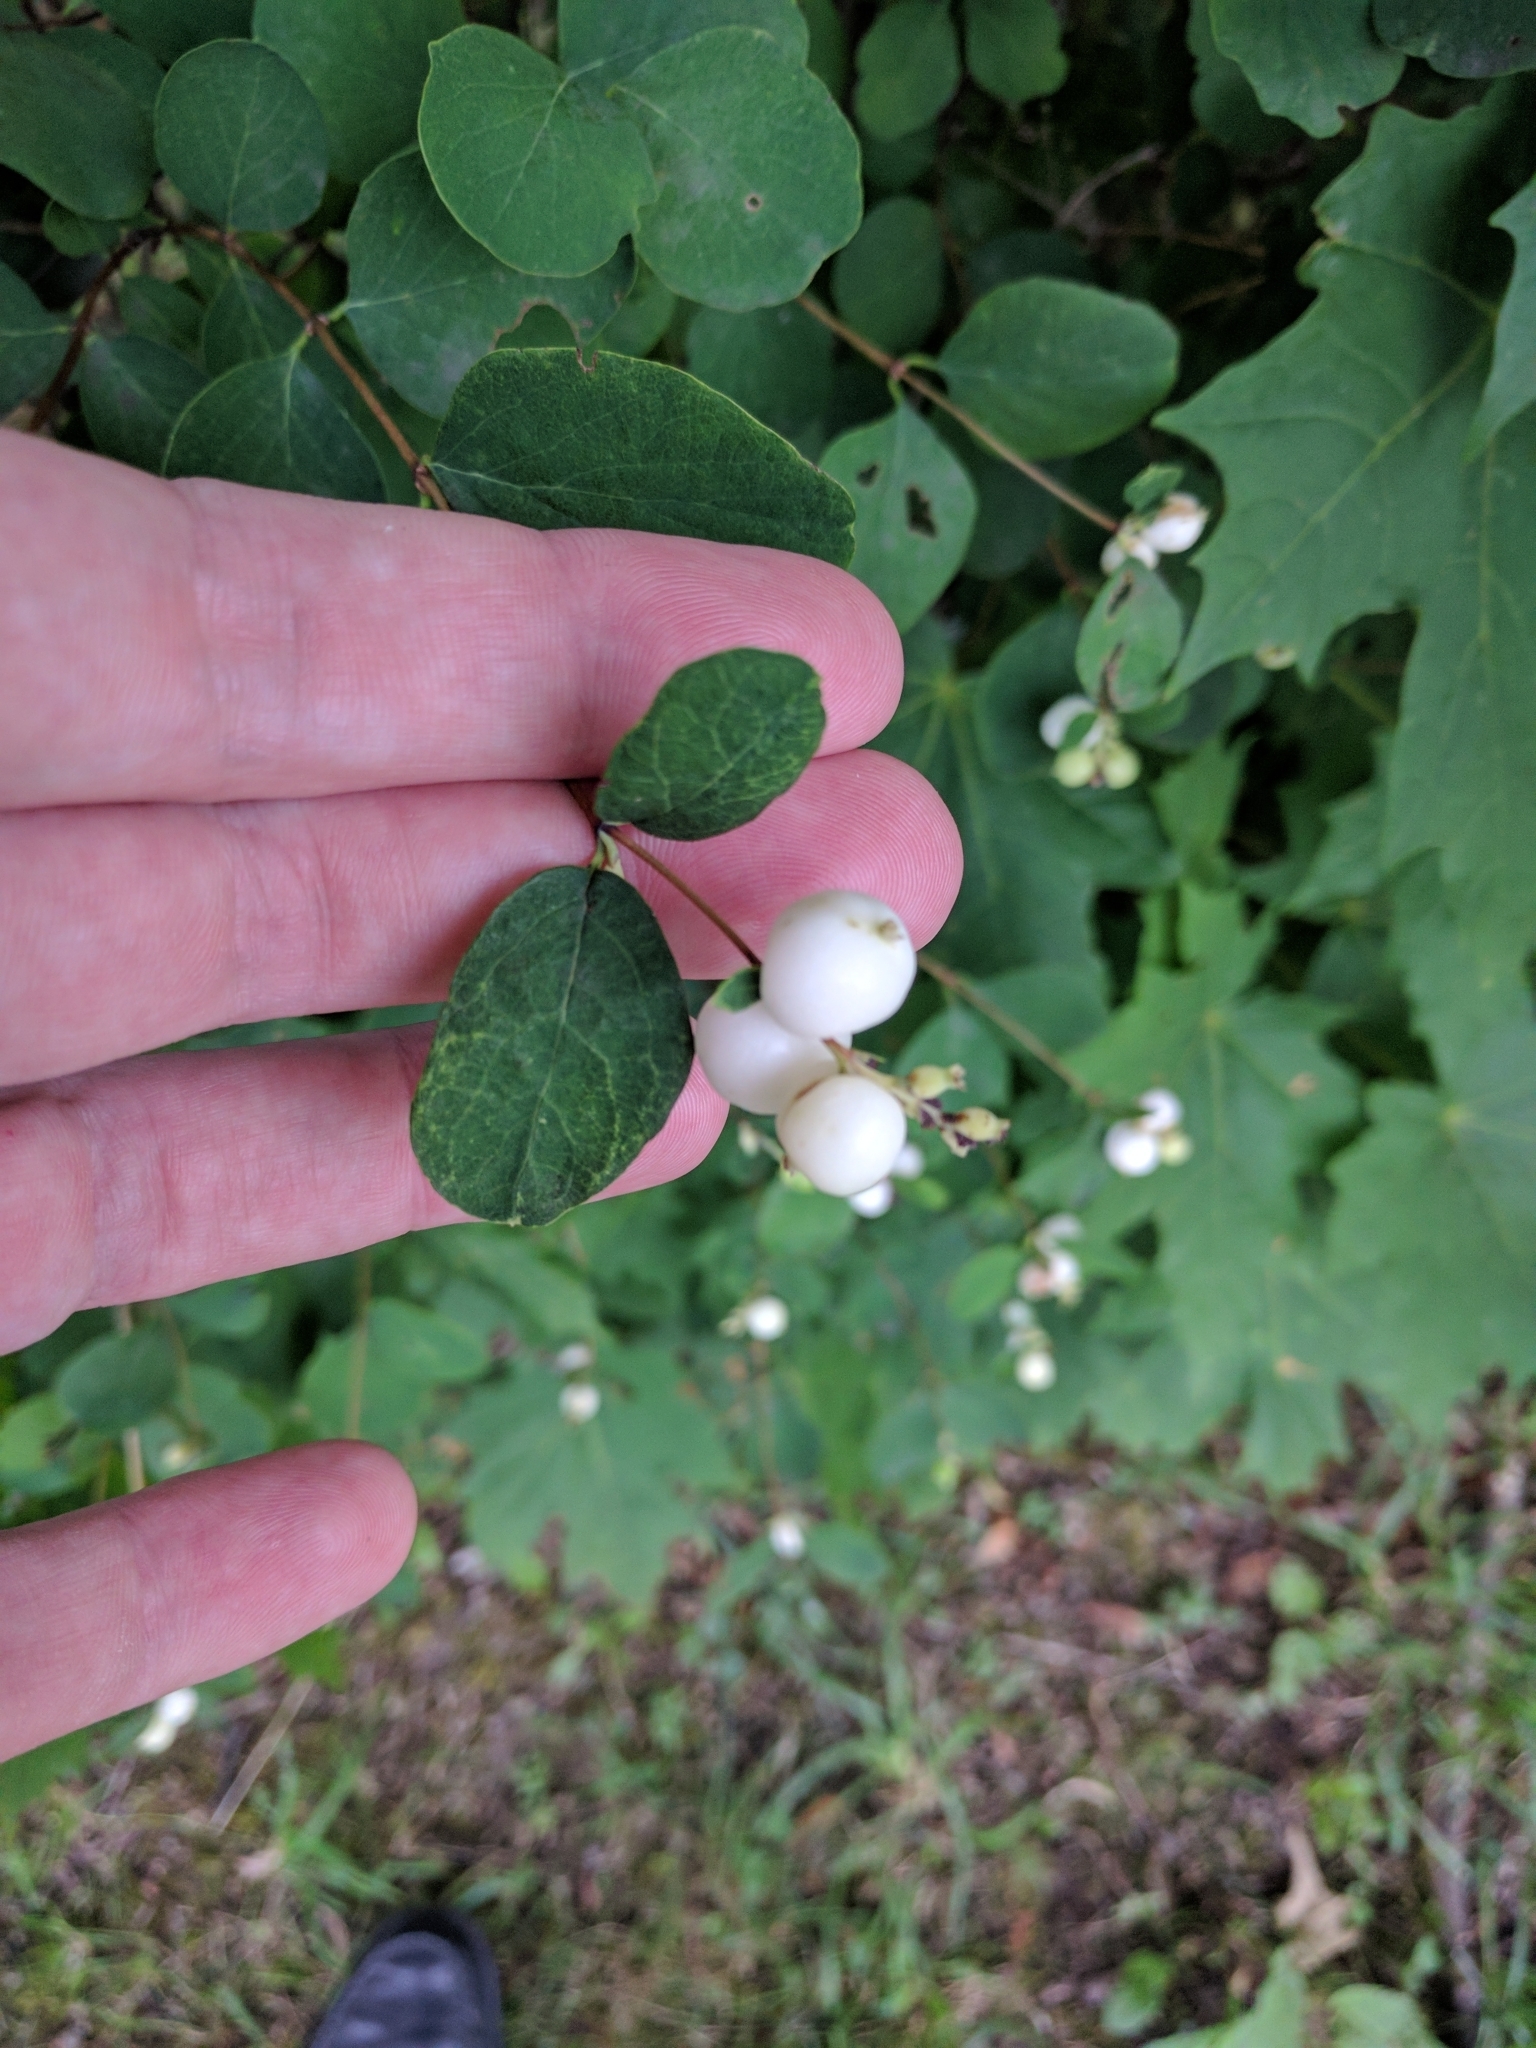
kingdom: Plantae
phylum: Tracheophyta
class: Magnoliopsida
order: Dipsacales
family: Caprifoliaceae
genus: Symphoricarpos
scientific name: Symphoricarpos albus
